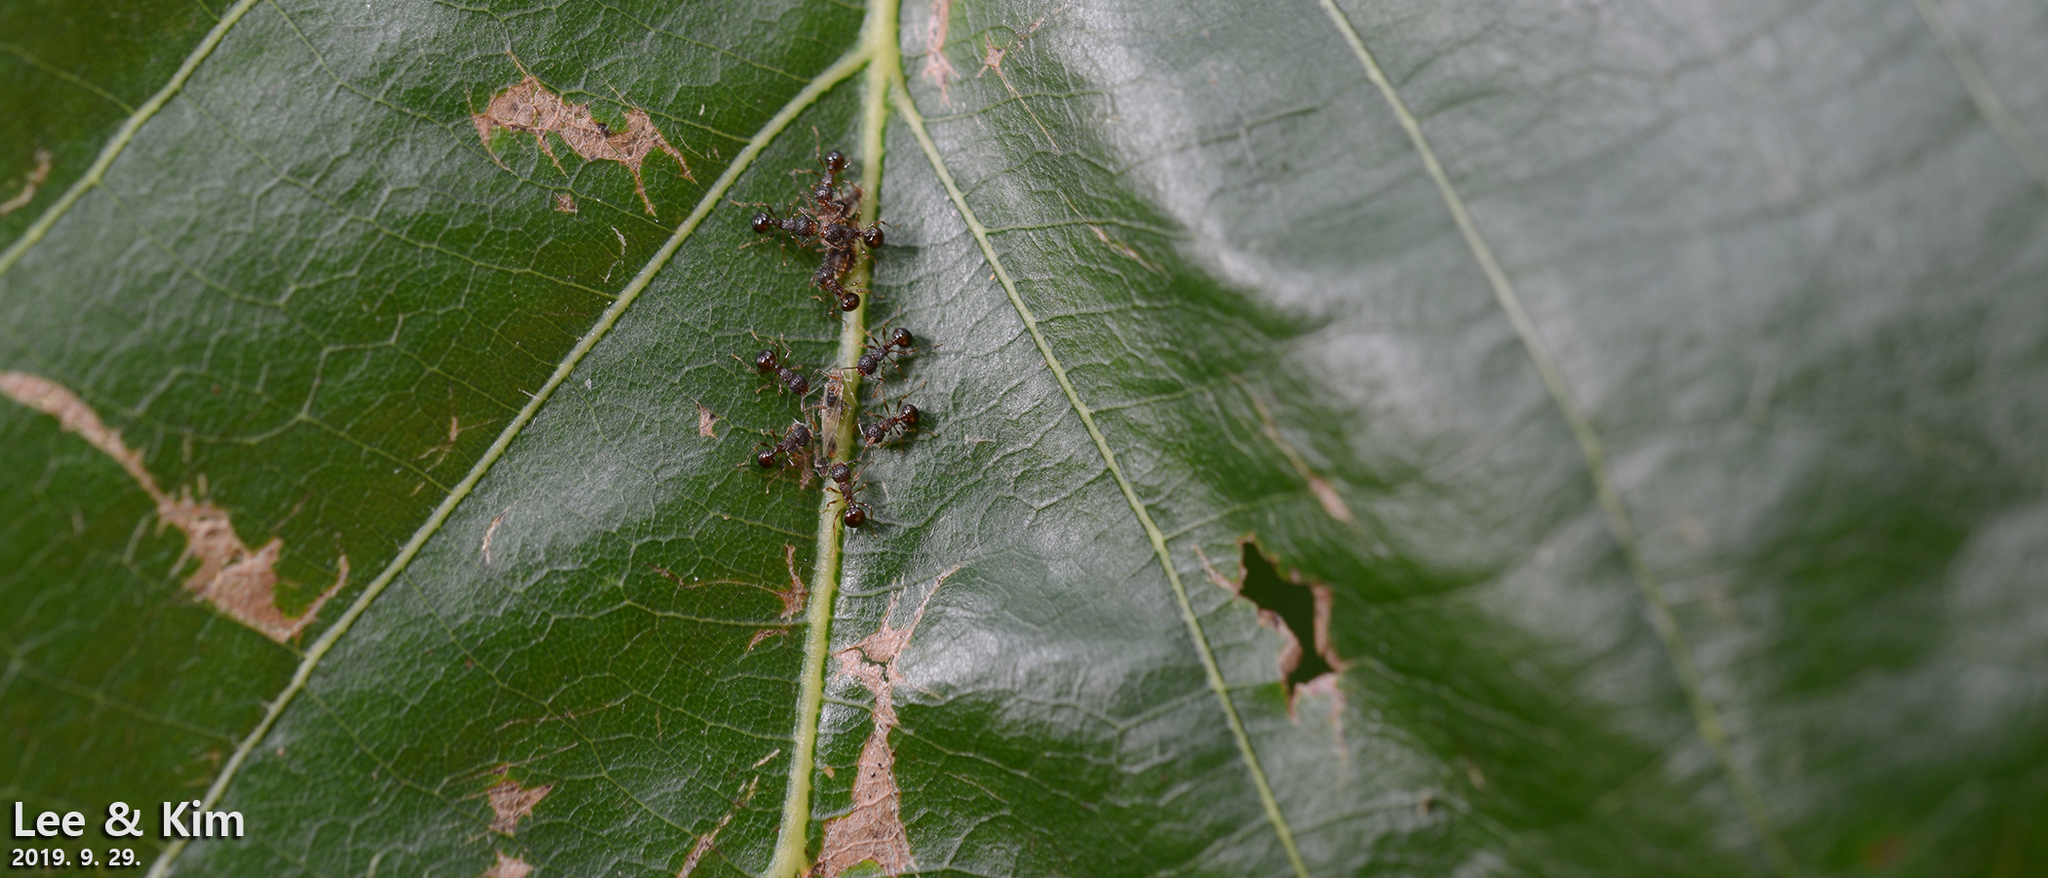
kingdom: Animalia
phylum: Arthropoda
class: Insecta
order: Hymenoptera
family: Formicidae
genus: Pristomyrmex
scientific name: Pristomyrmex punctatus
